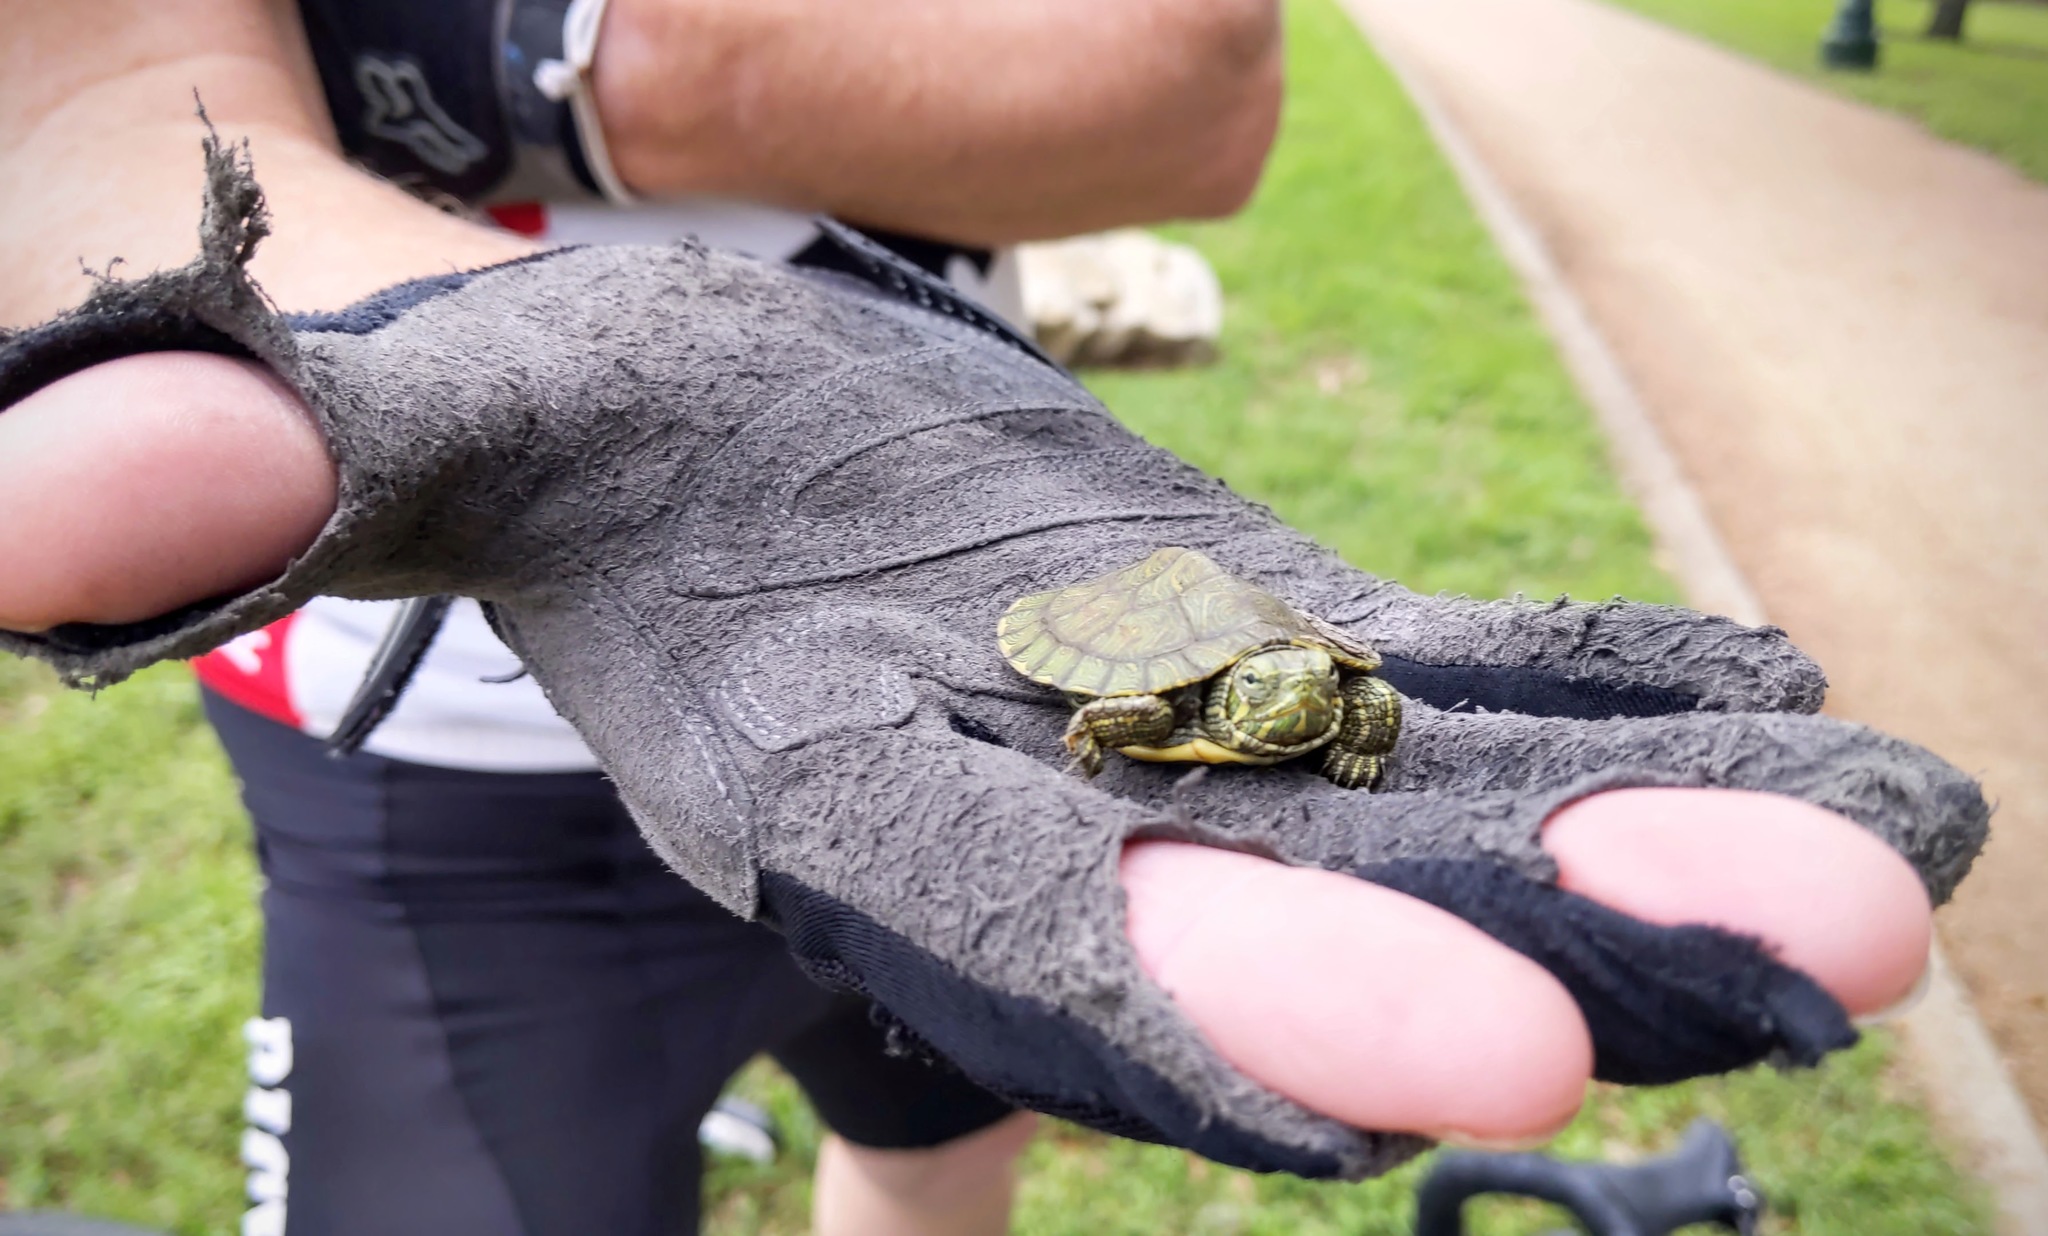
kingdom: Animalia
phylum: Chordata
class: Testudines
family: Emydidae
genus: Trachemys
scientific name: Trachemys scripta
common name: Slider
